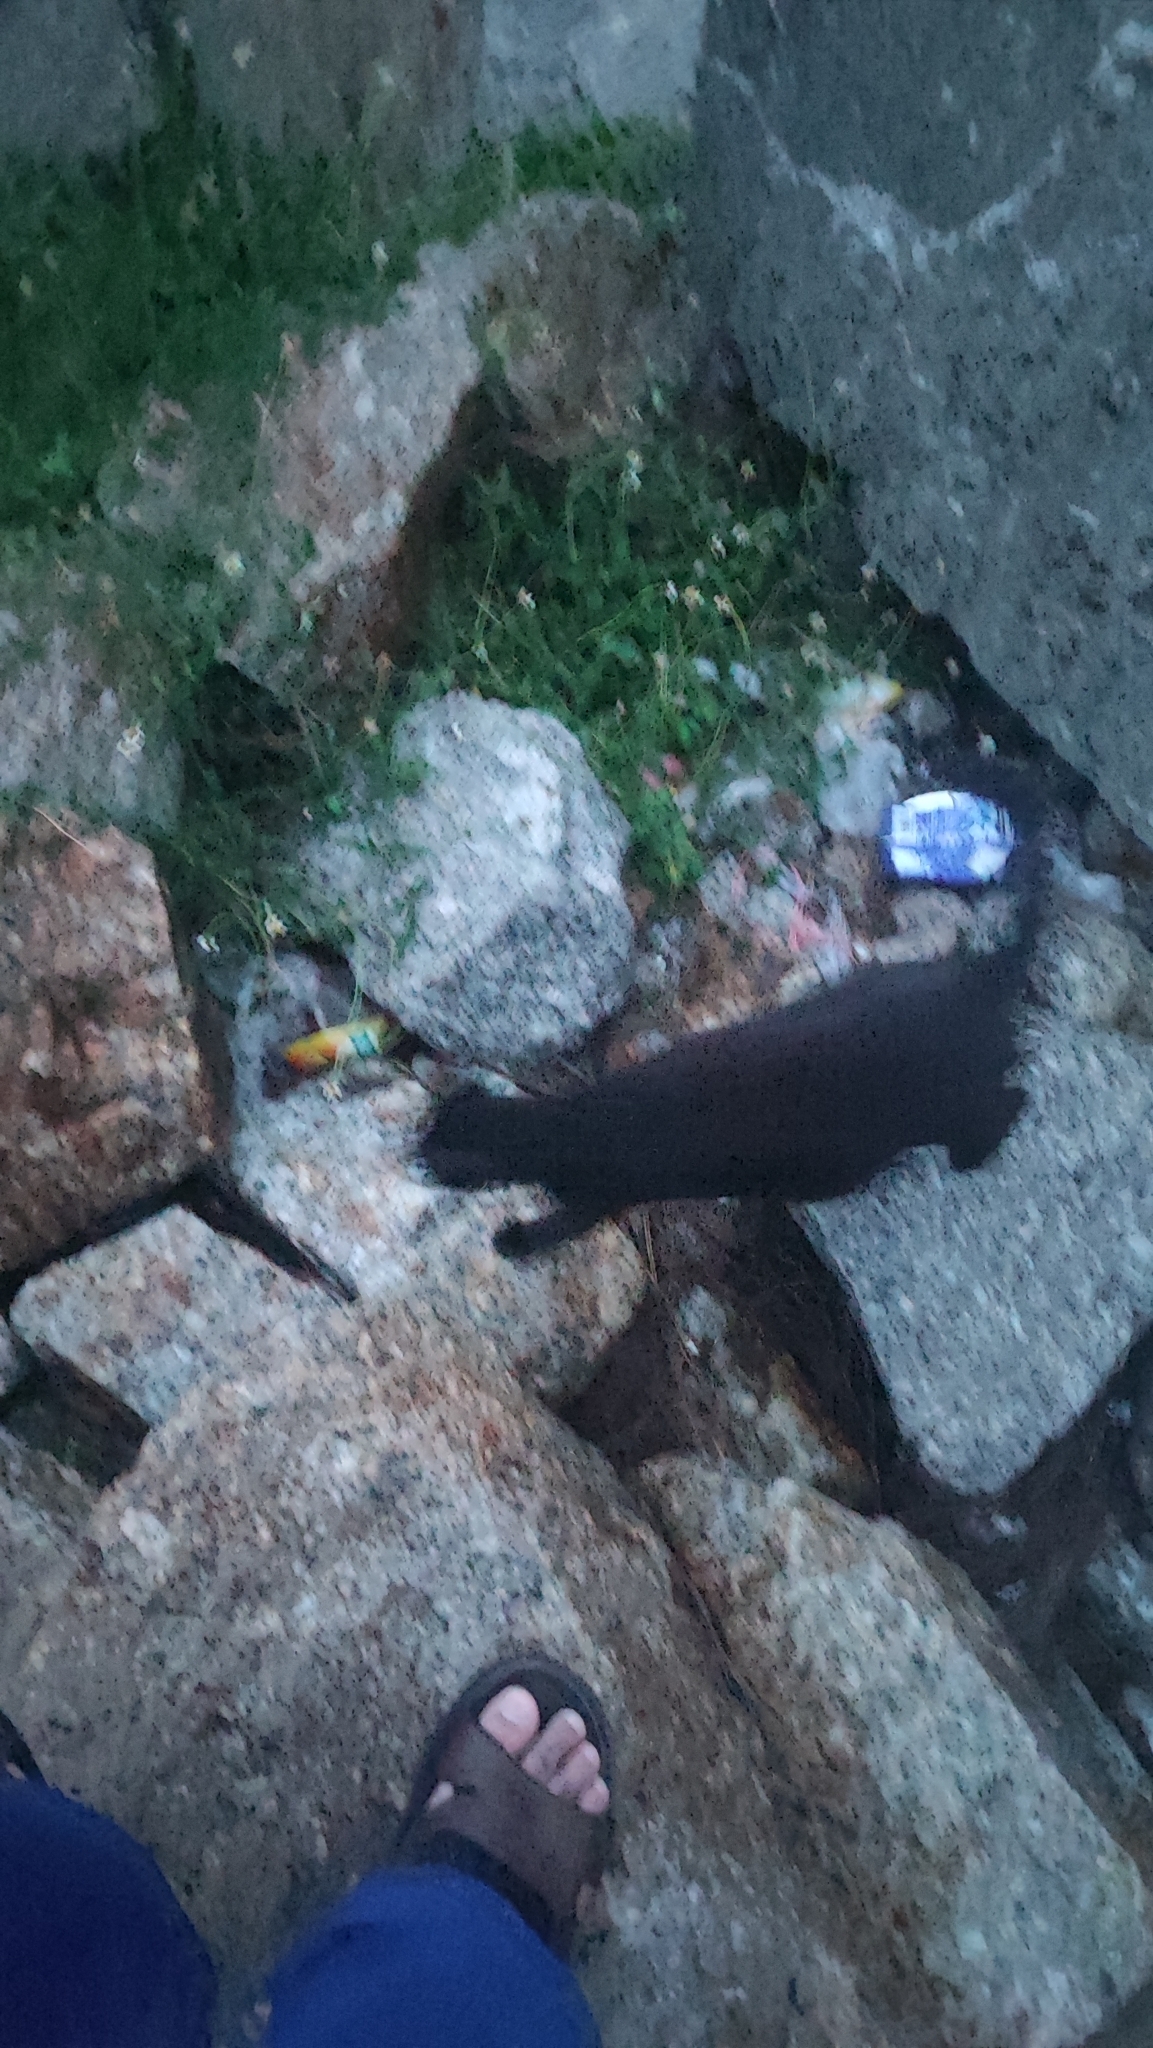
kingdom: Animalia
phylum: Chordata
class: Mammalia
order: Carnivora
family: Felidae
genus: Felis
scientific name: Felis catus
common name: Domestic cat
